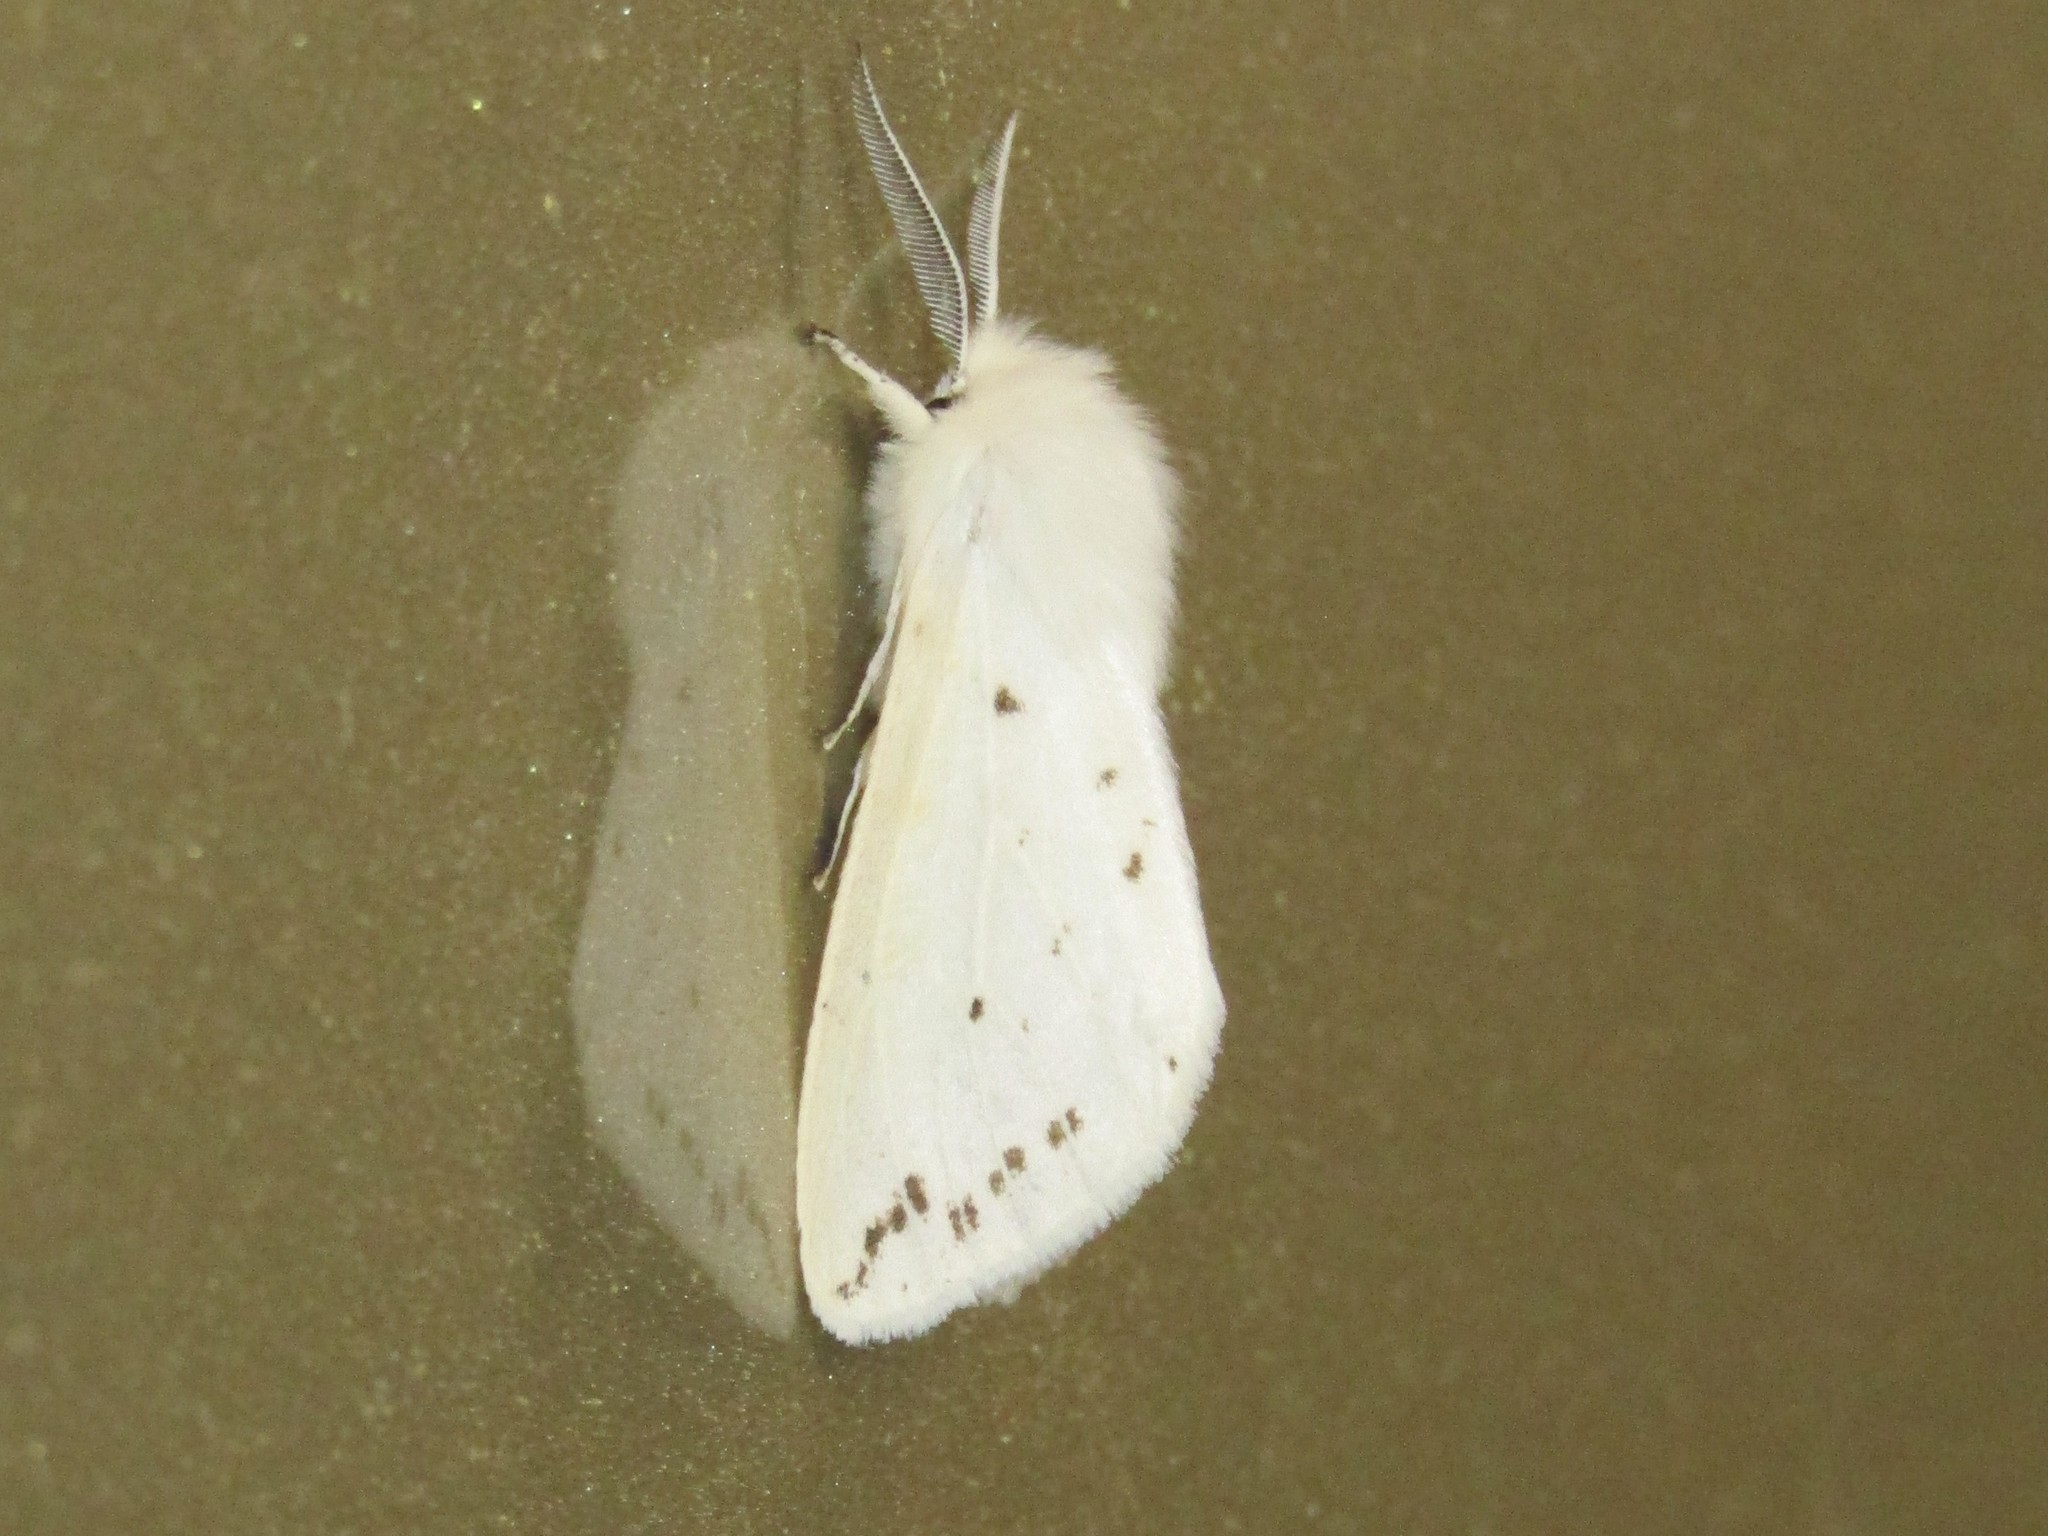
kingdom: Animalia
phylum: Arthropoda
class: Insecta
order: Lepidoptera
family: Erebidae
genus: Spilosoma
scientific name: Spilosoma congrua
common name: Agreeable tiger moth
